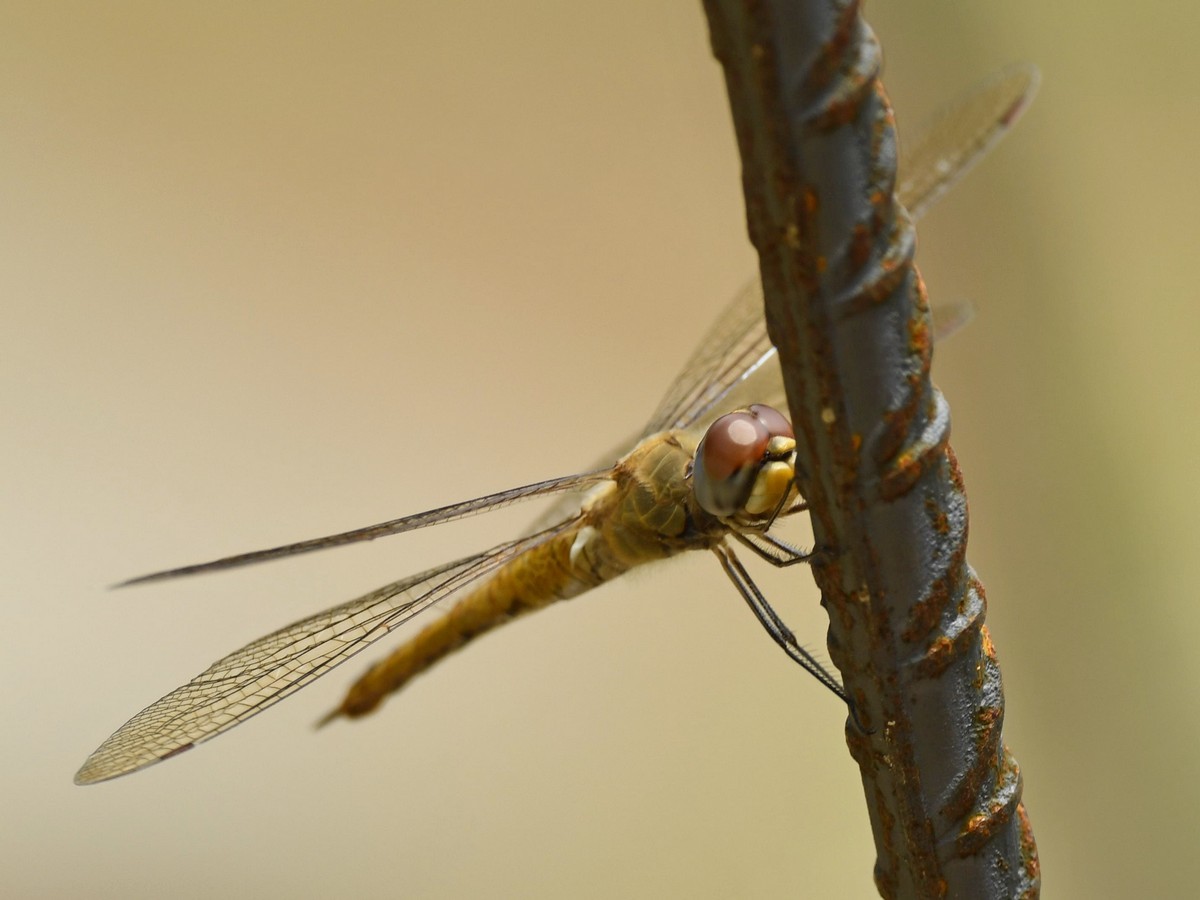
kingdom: Animalia
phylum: Arthropoda
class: Insecta
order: Odonata
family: Libellulidae
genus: Pantala
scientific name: Pantala flavescens
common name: Wandering glider
